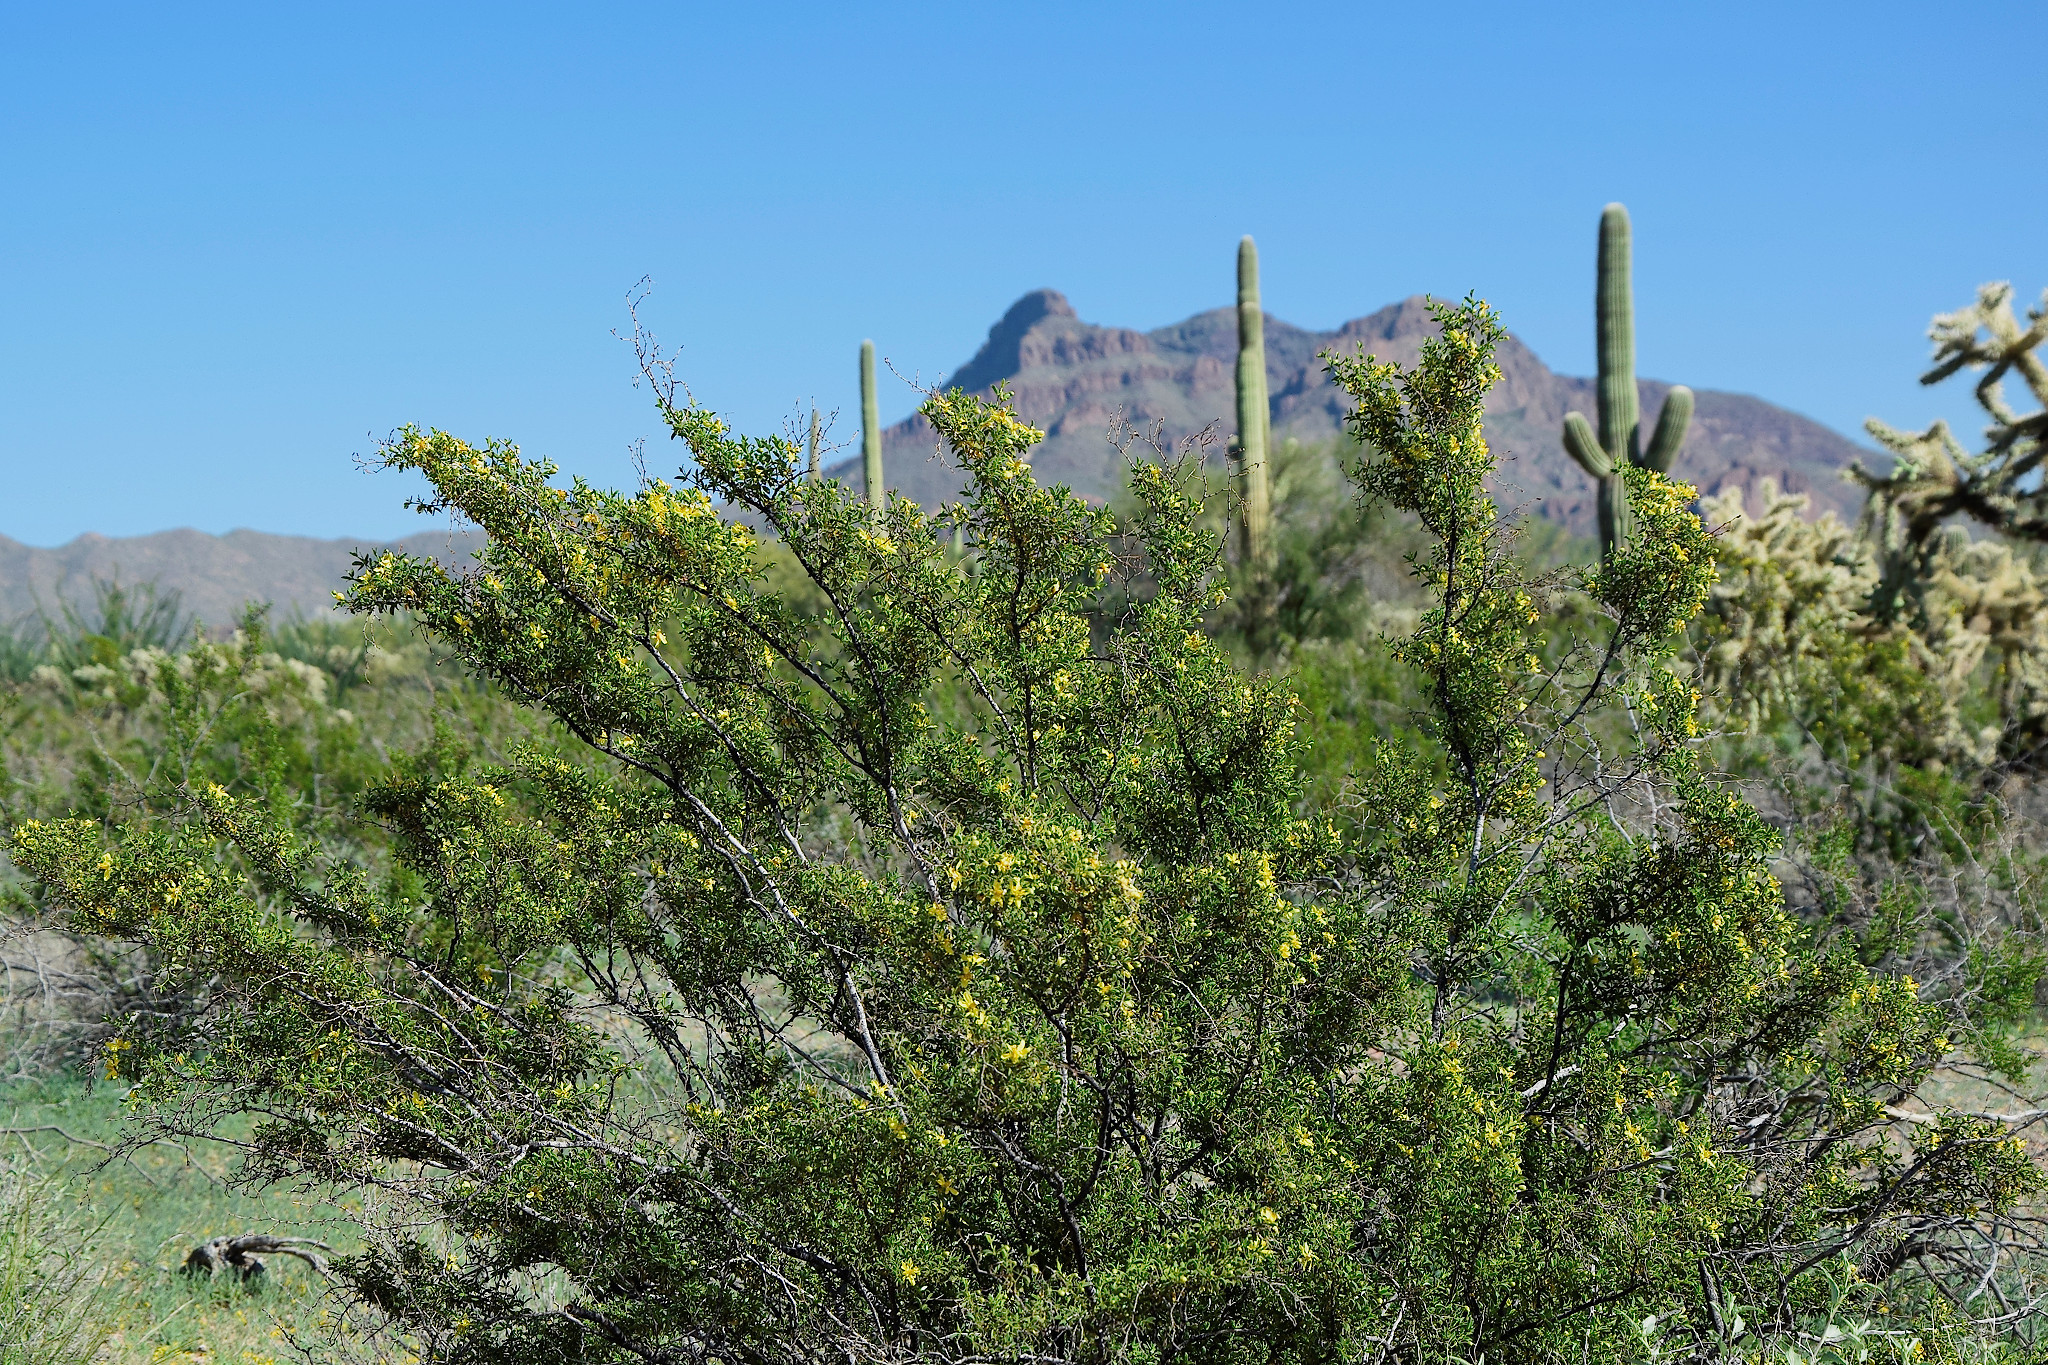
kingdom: Plantae
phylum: Tracheophyta
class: Magnoliopsida
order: Zygophyllales
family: Zygophyllaceae
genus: Larrea
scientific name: Larrea tridentata
